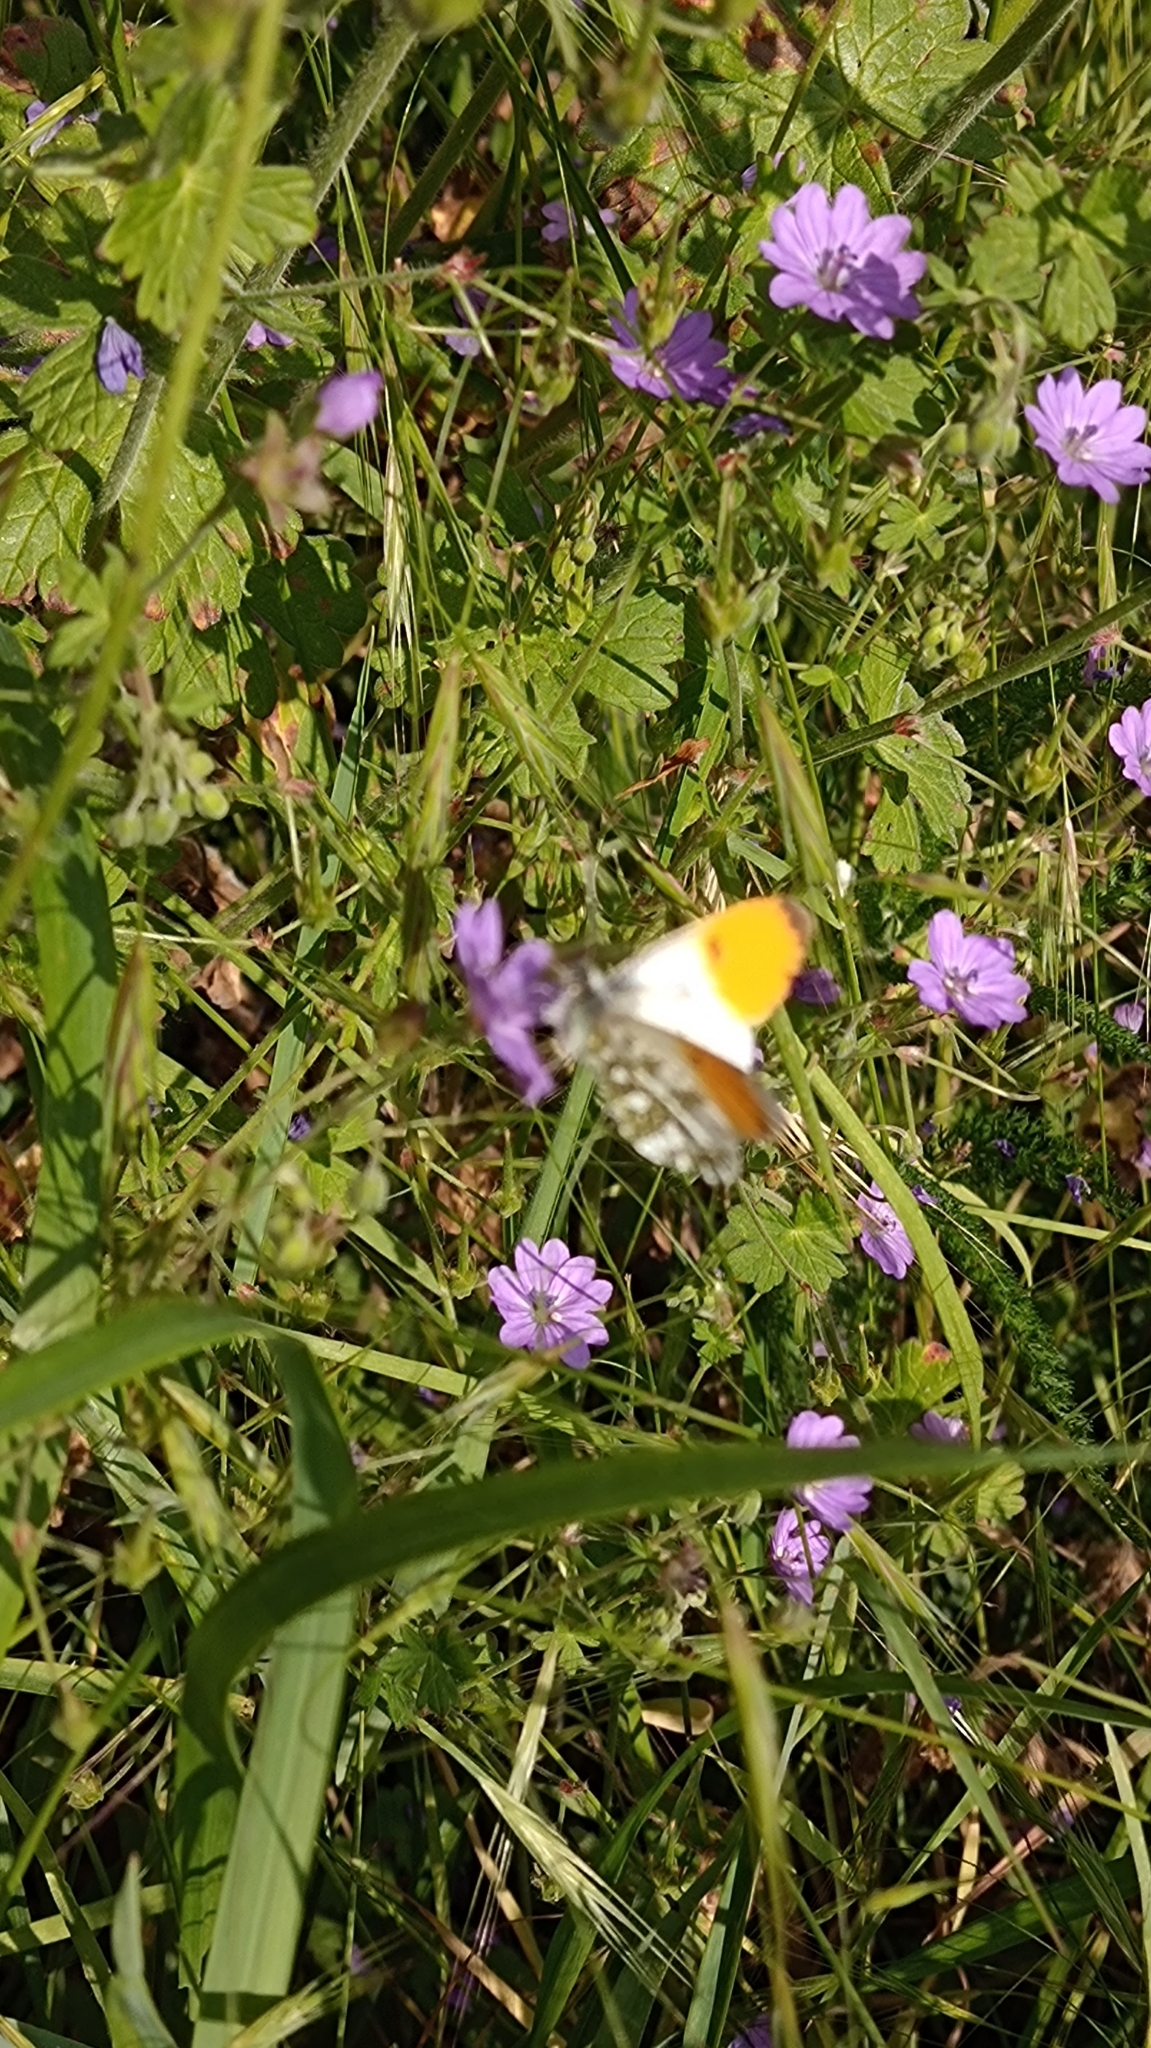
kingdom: Animalia
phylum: Arthropoda
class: Insecta
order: Lepidoptera
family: Pieridae
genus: Anthocharis
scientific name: Anthocharis cardamines
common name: Orange-tip
